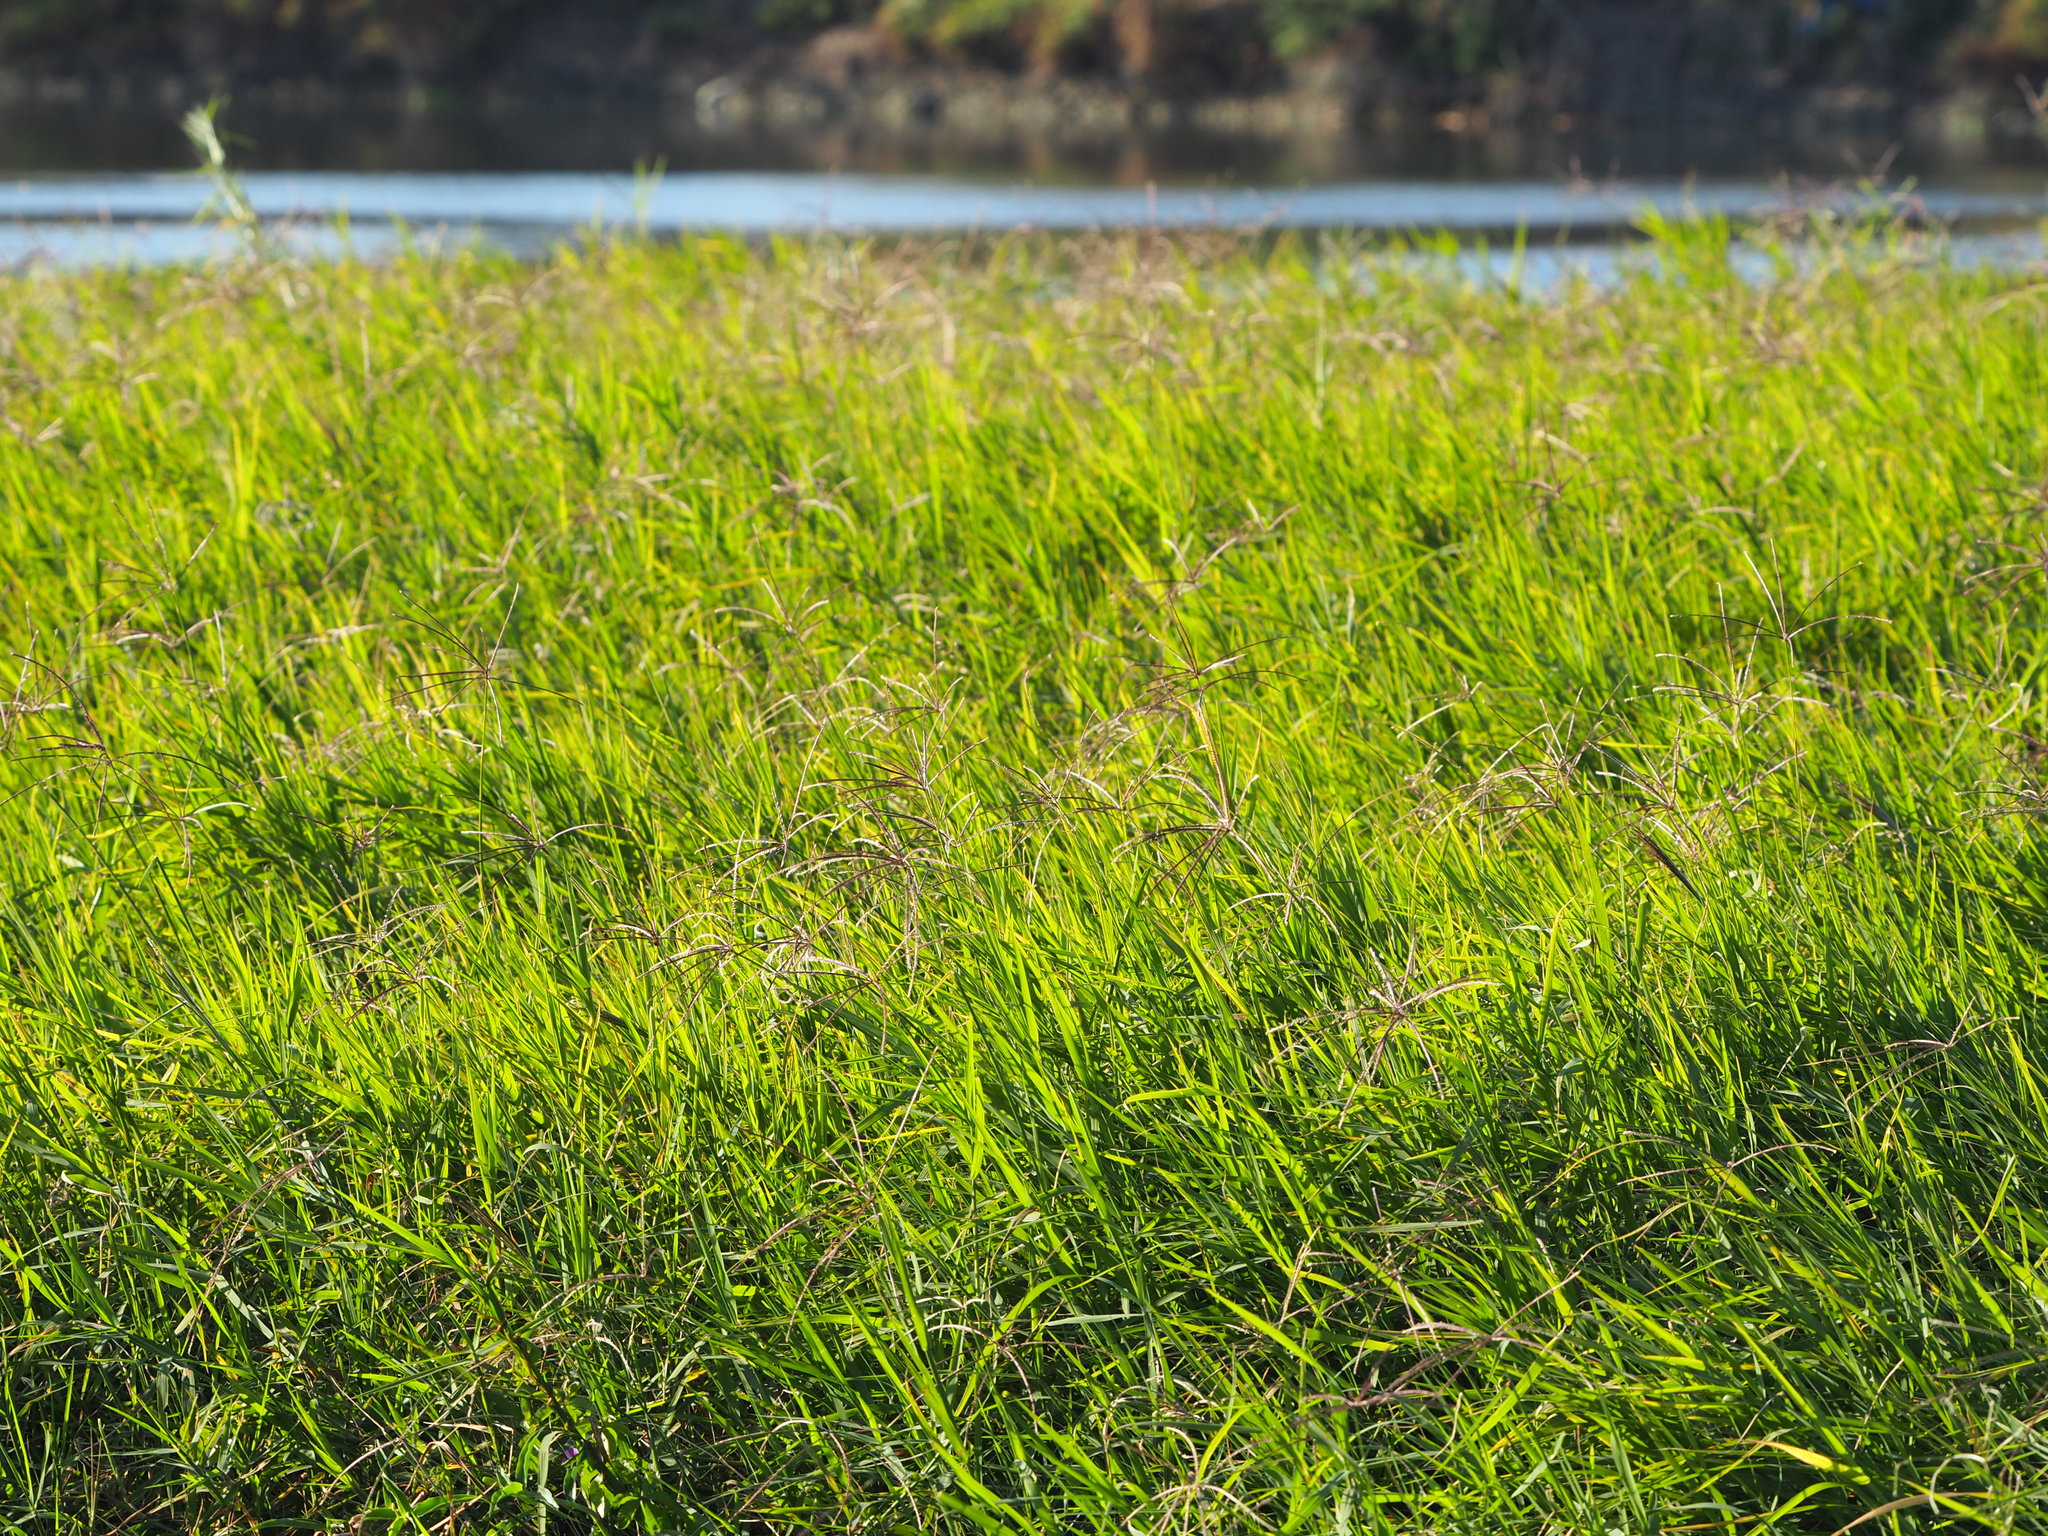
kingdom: Plantae
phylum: Tracheophyta
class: Liliopsida
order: Poales
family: Poaceae
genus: Cynodon
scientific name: Cynodon nlemfuensis
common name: African bermudagrass
